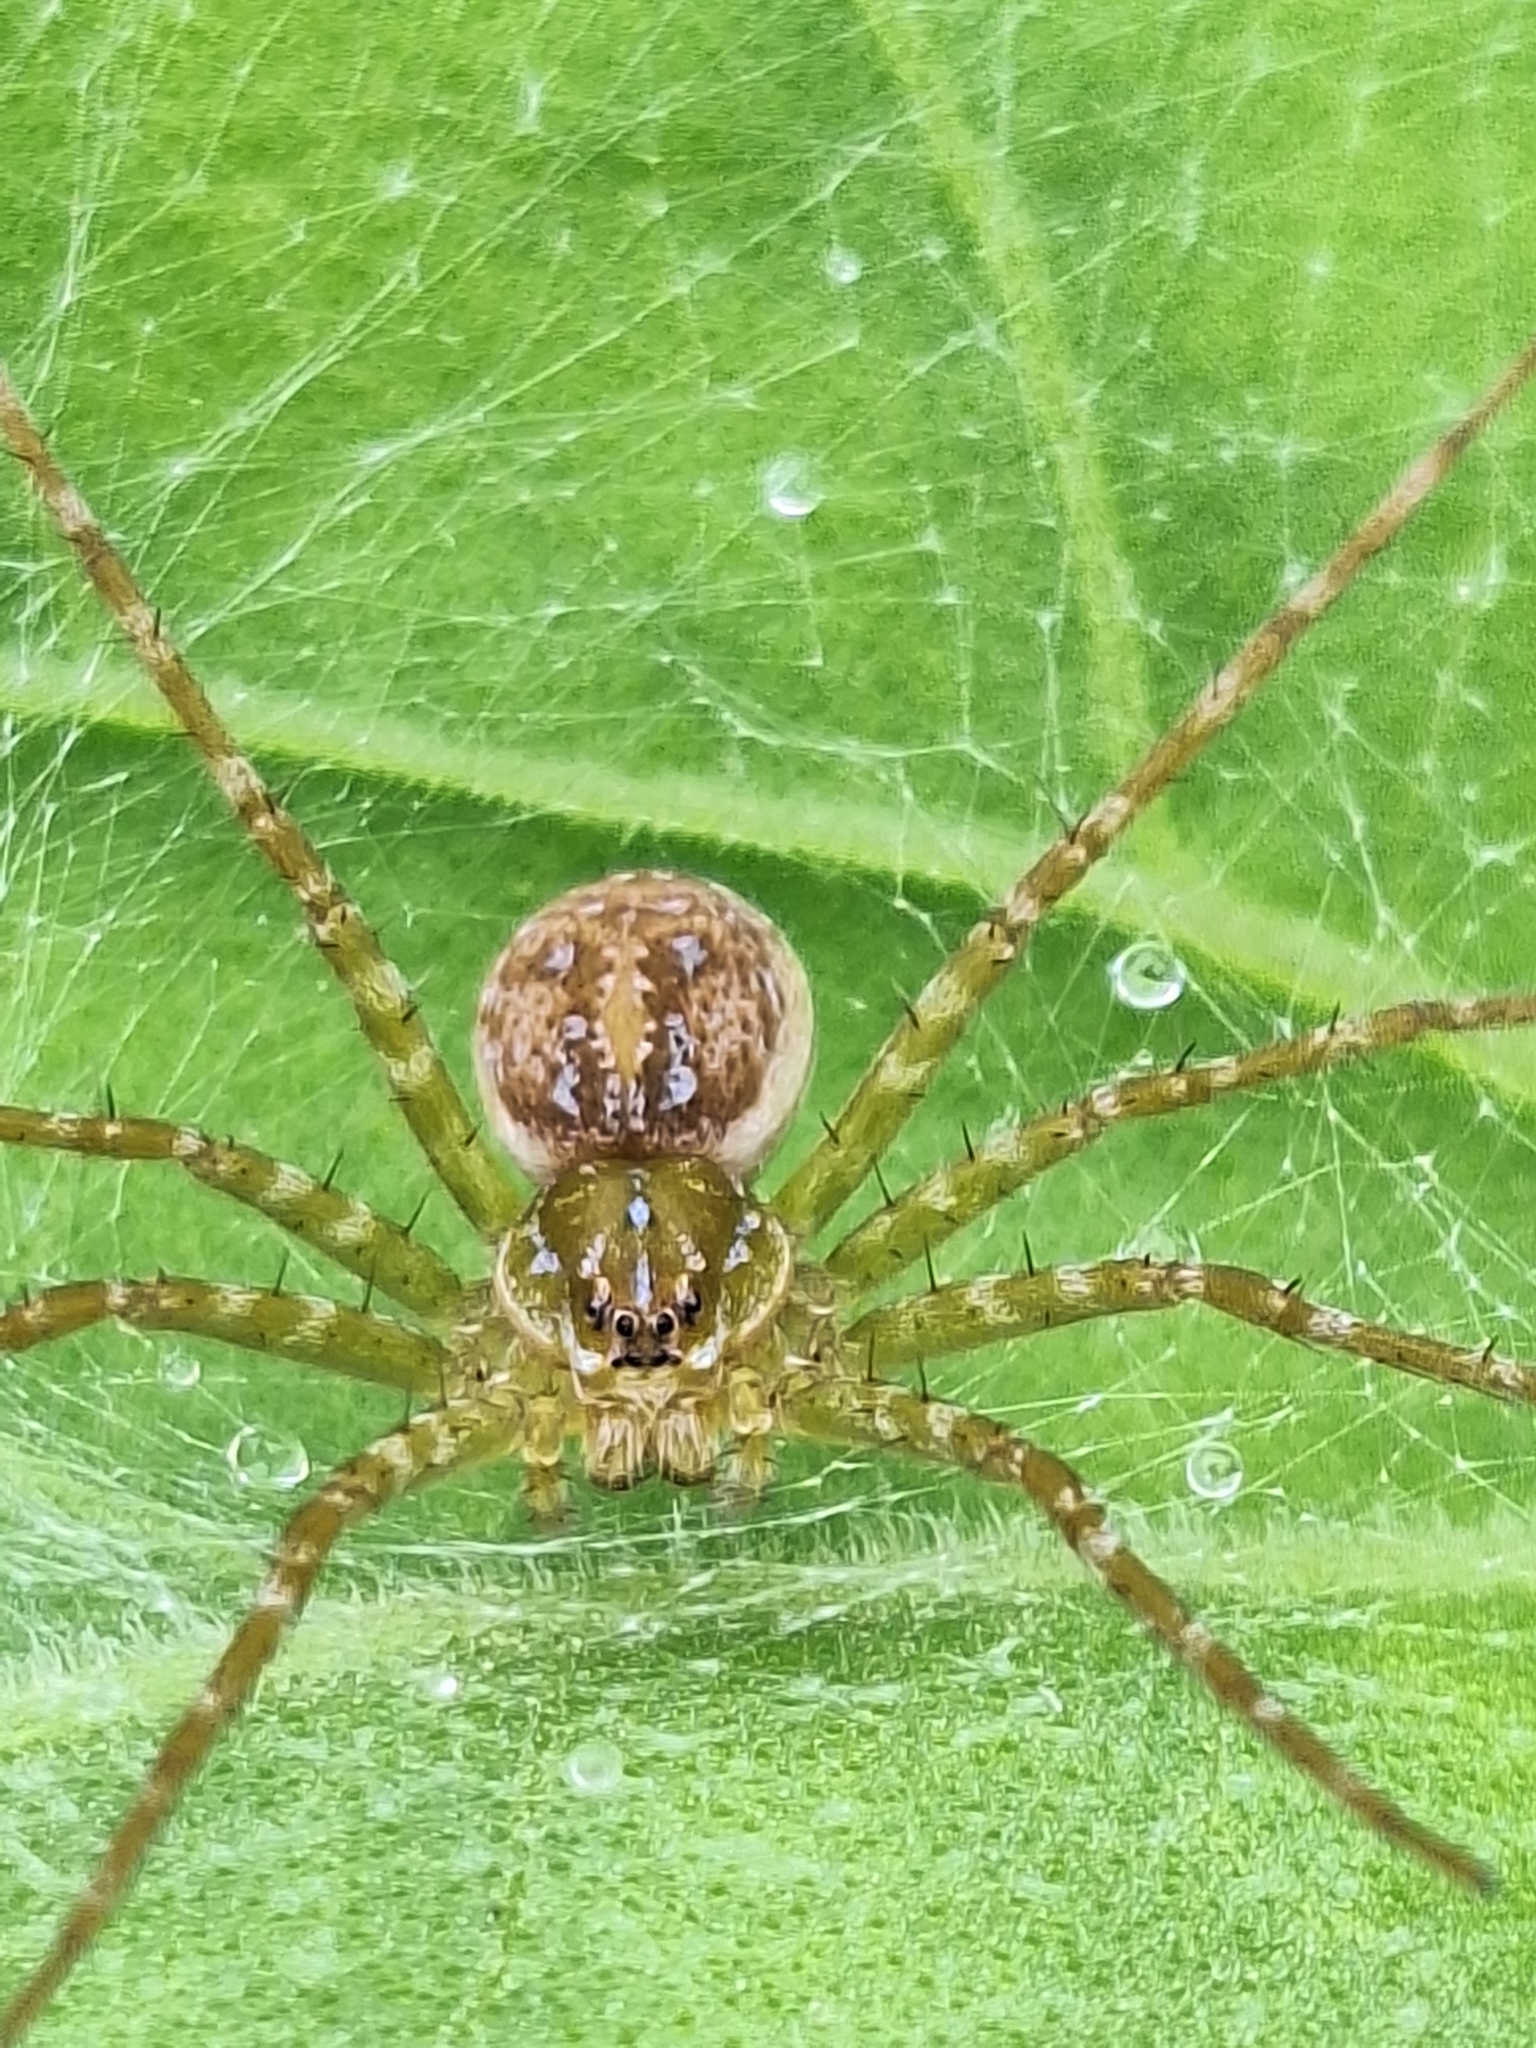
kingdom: Animalia
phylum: Arthropoda
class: Arachnida
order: Araneae
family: Pisauridae
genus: Thaumasia
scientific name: Thaumasia velox
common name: Nursery web spiders
